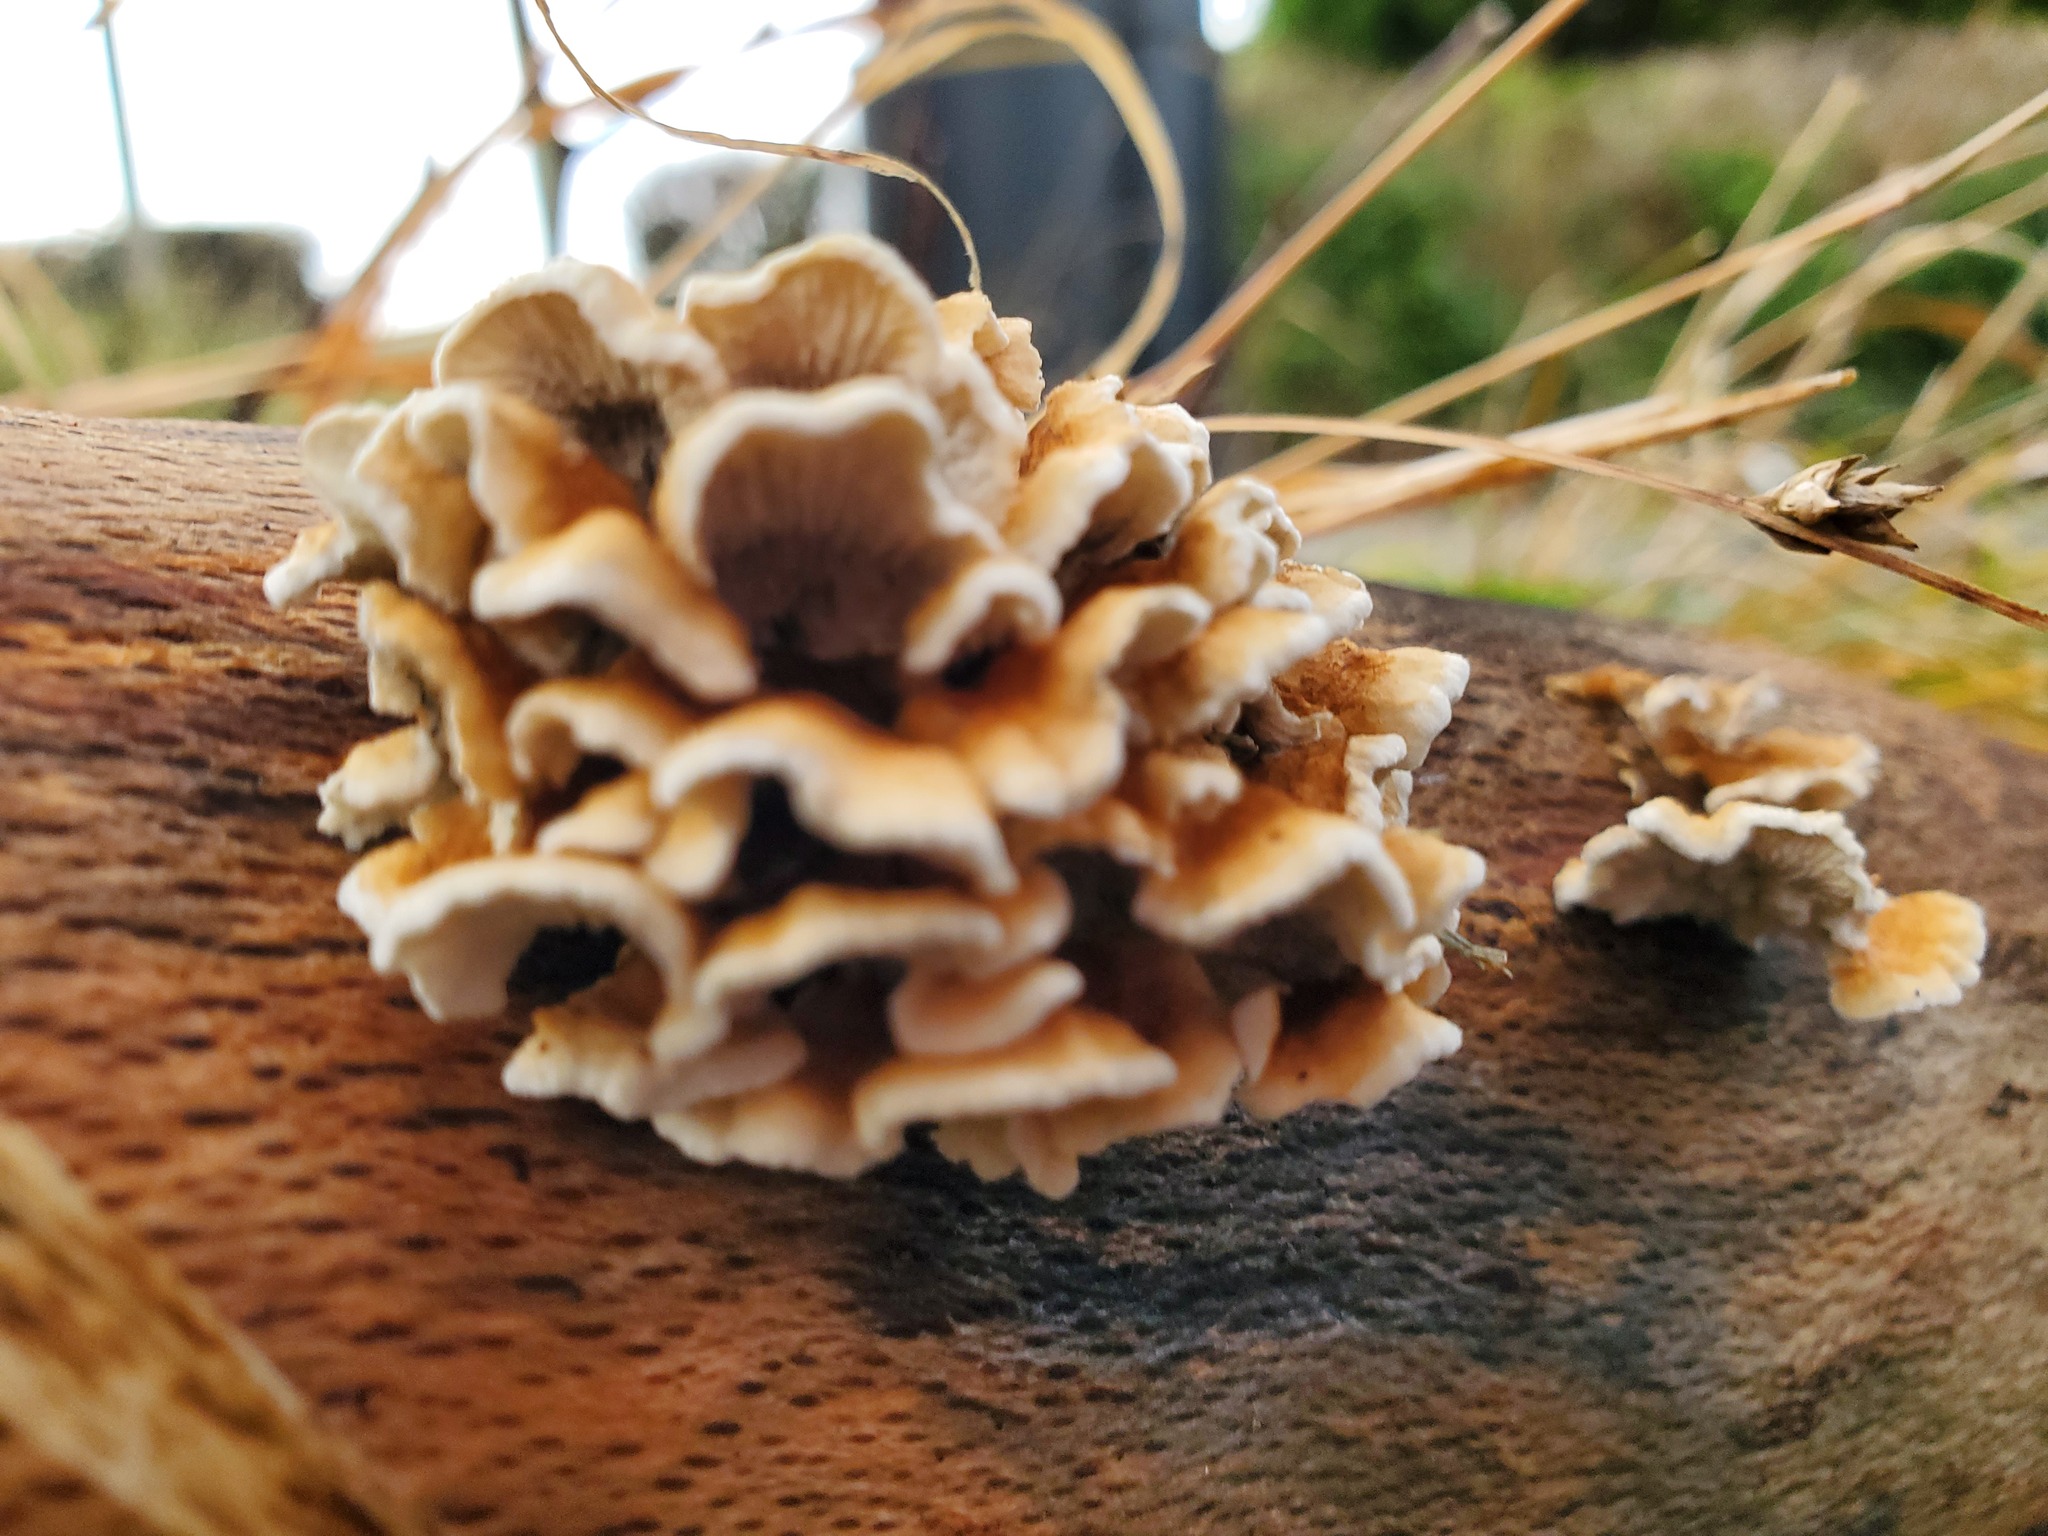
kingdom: Fungi
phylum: Basidiomycota
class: Agaricomycetes
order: Amylocorticiales
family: Amylocorticiaceae
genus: Plicaturopsis
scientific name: Plicaturopsis crispa
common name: Crimped gill
